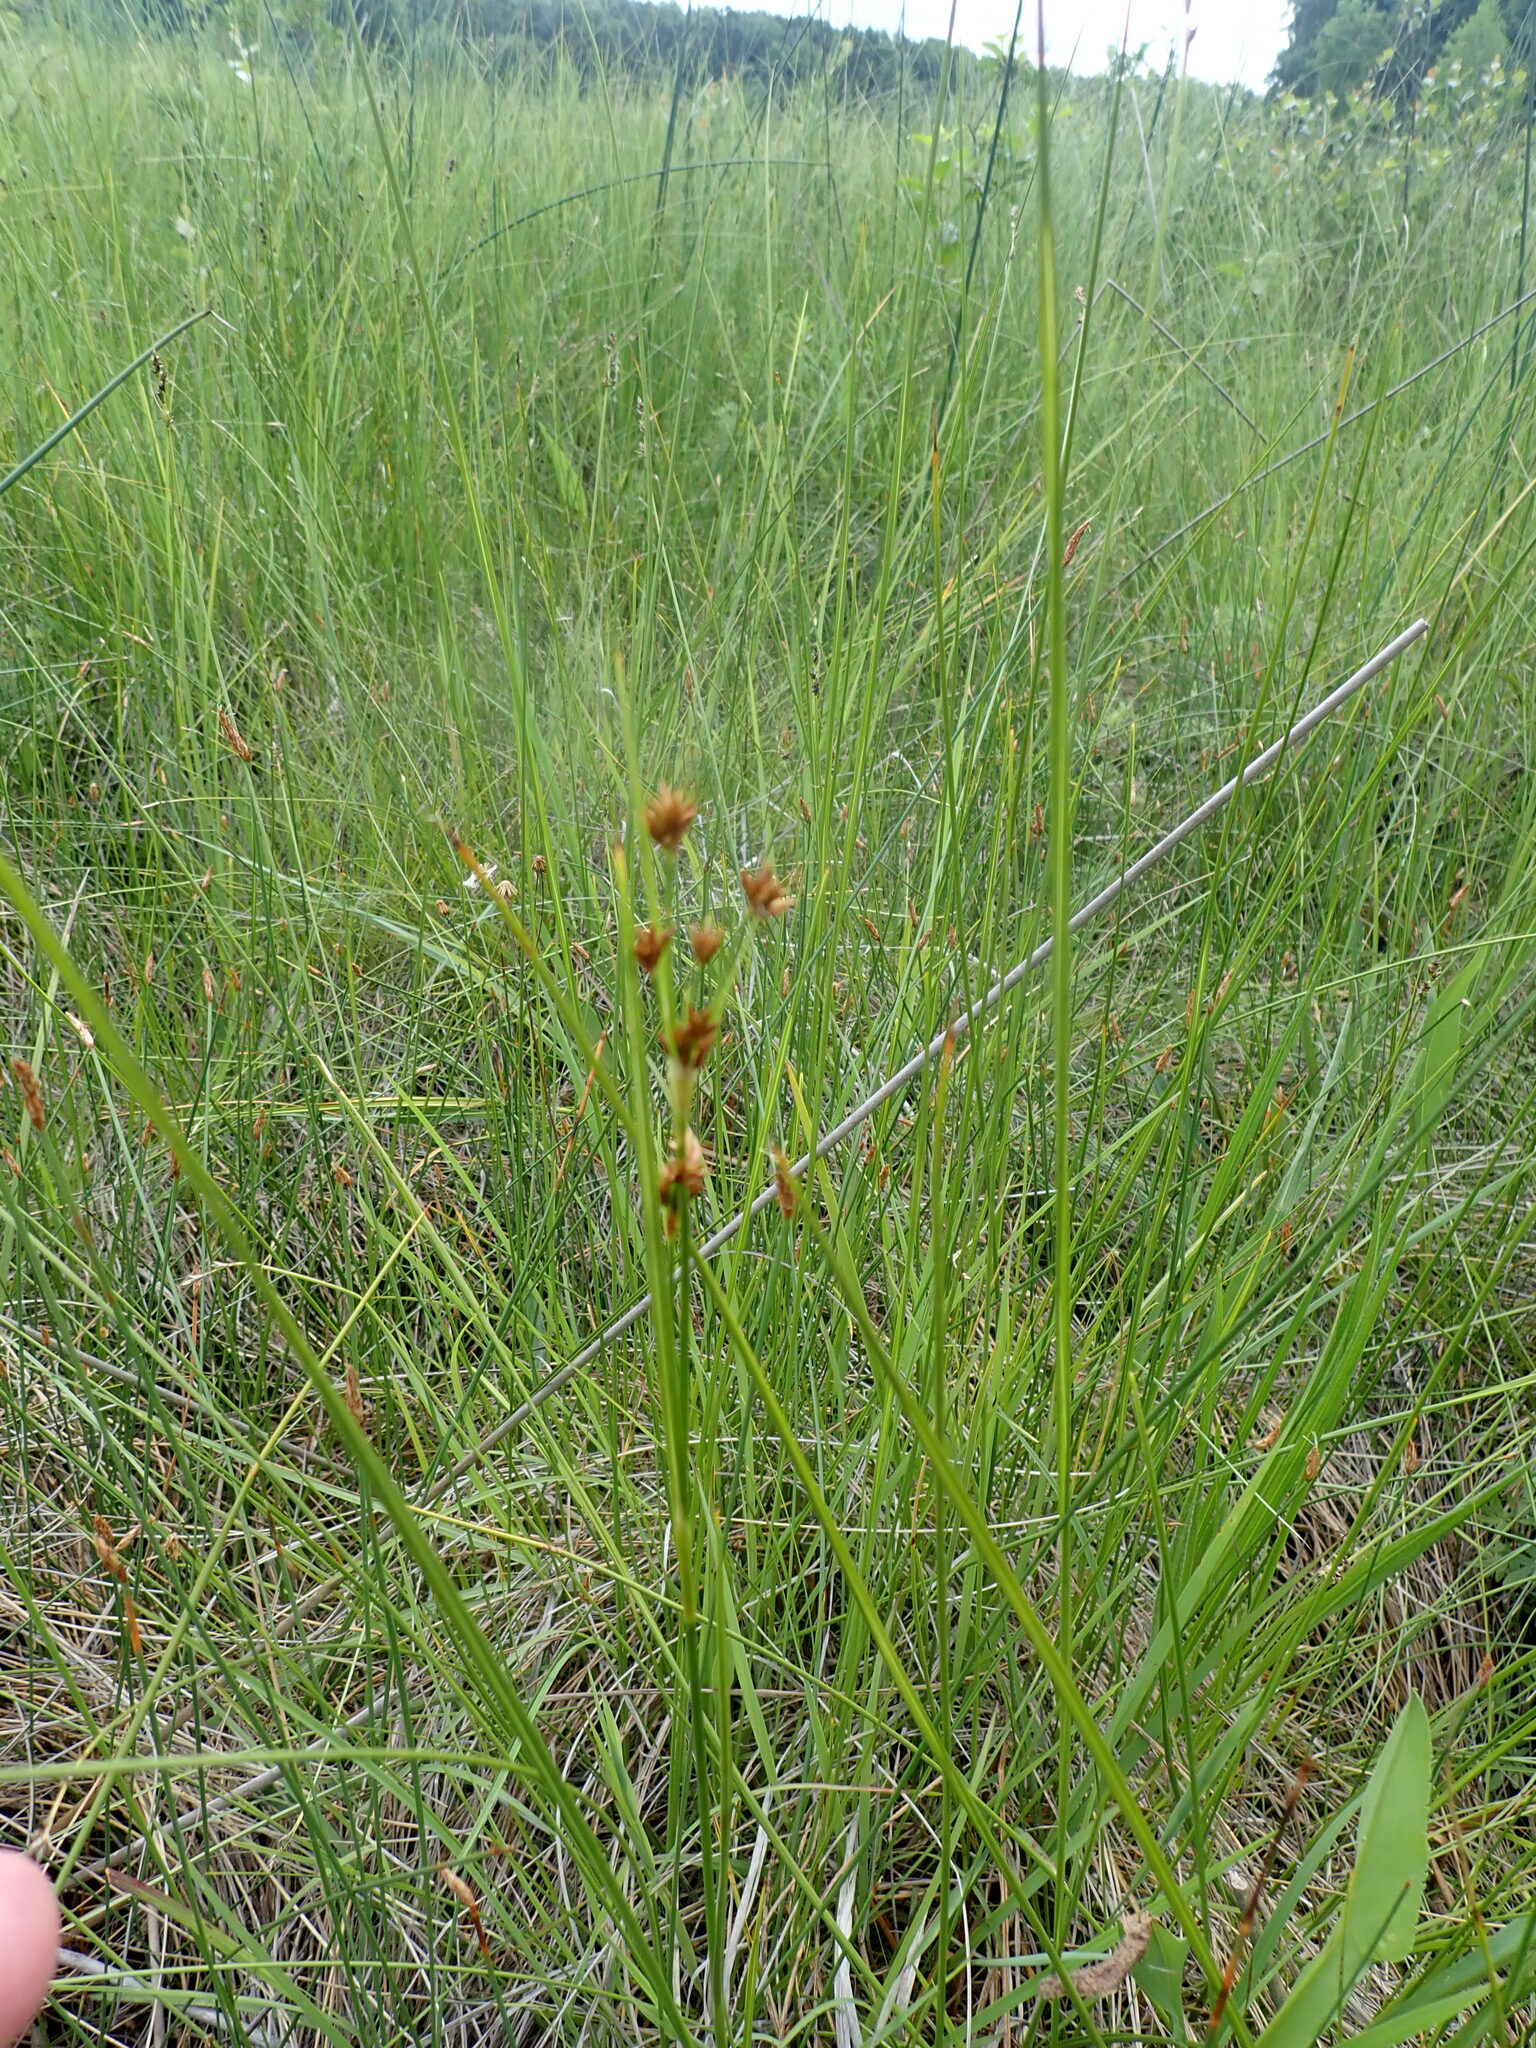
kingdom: Plantae
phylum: Tracheophyta
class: Liliopsida
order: Poales
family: Cyperaceae
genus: Cladium
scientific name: Cladium mariscoides
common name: Smooth sawgrass
